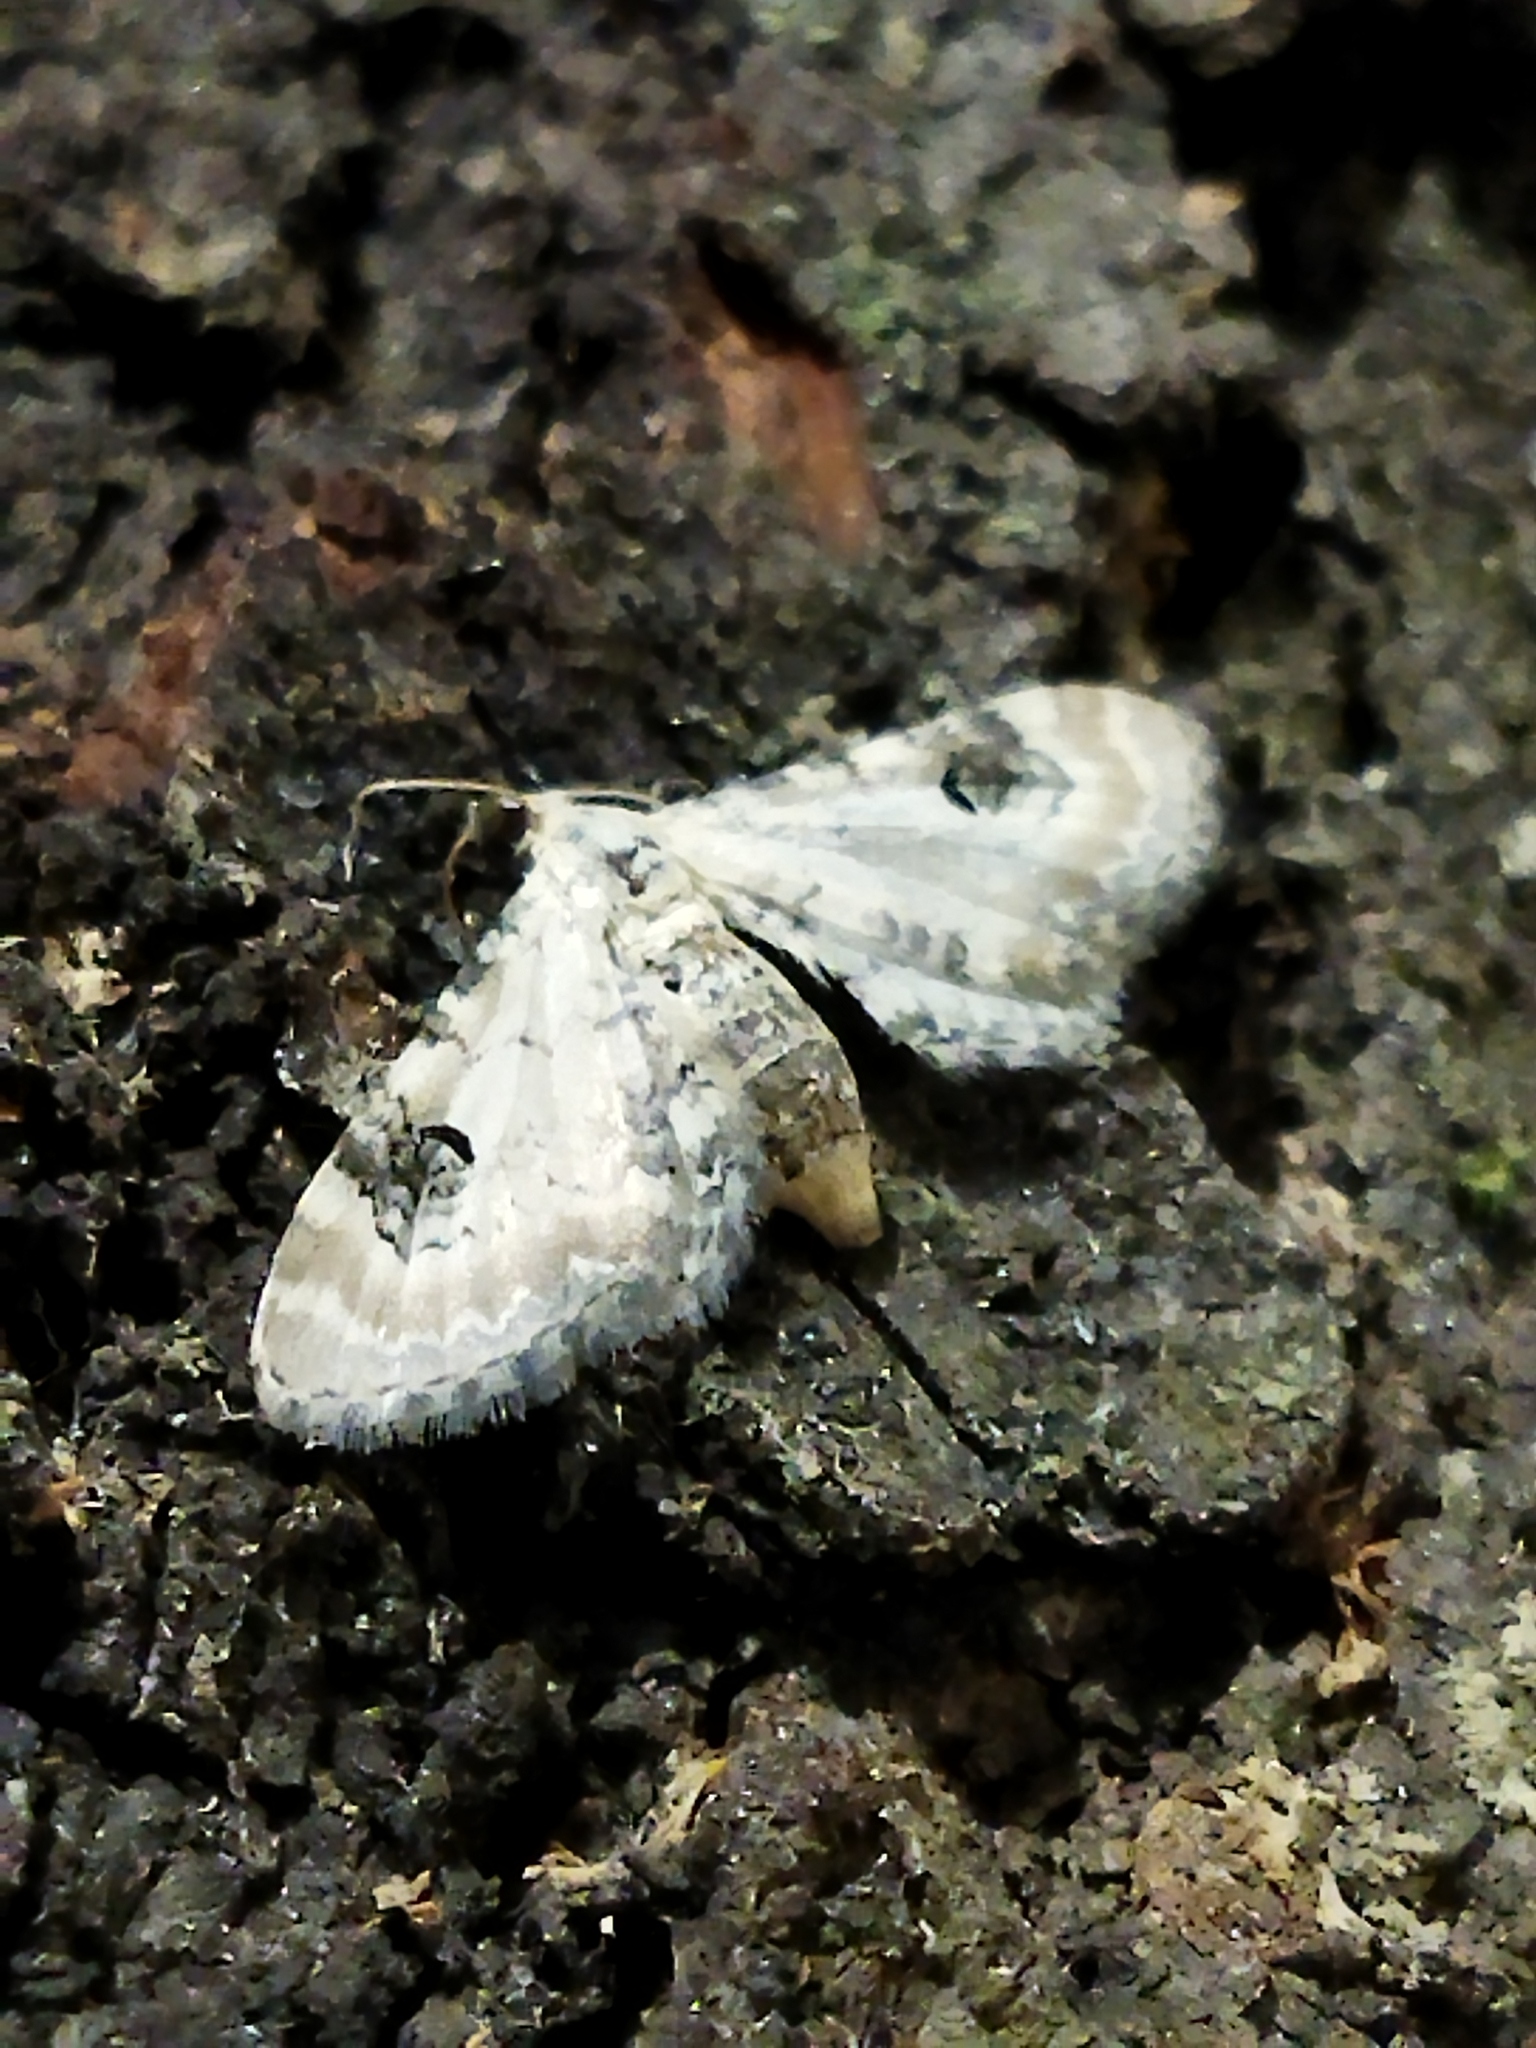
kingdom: Animalia
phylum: Arthropoda
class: Insecta
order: Lepidoptera
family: Geometridae
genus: Eupithecia
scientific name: Eupithecia centaureata
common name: Lime-speck pug
